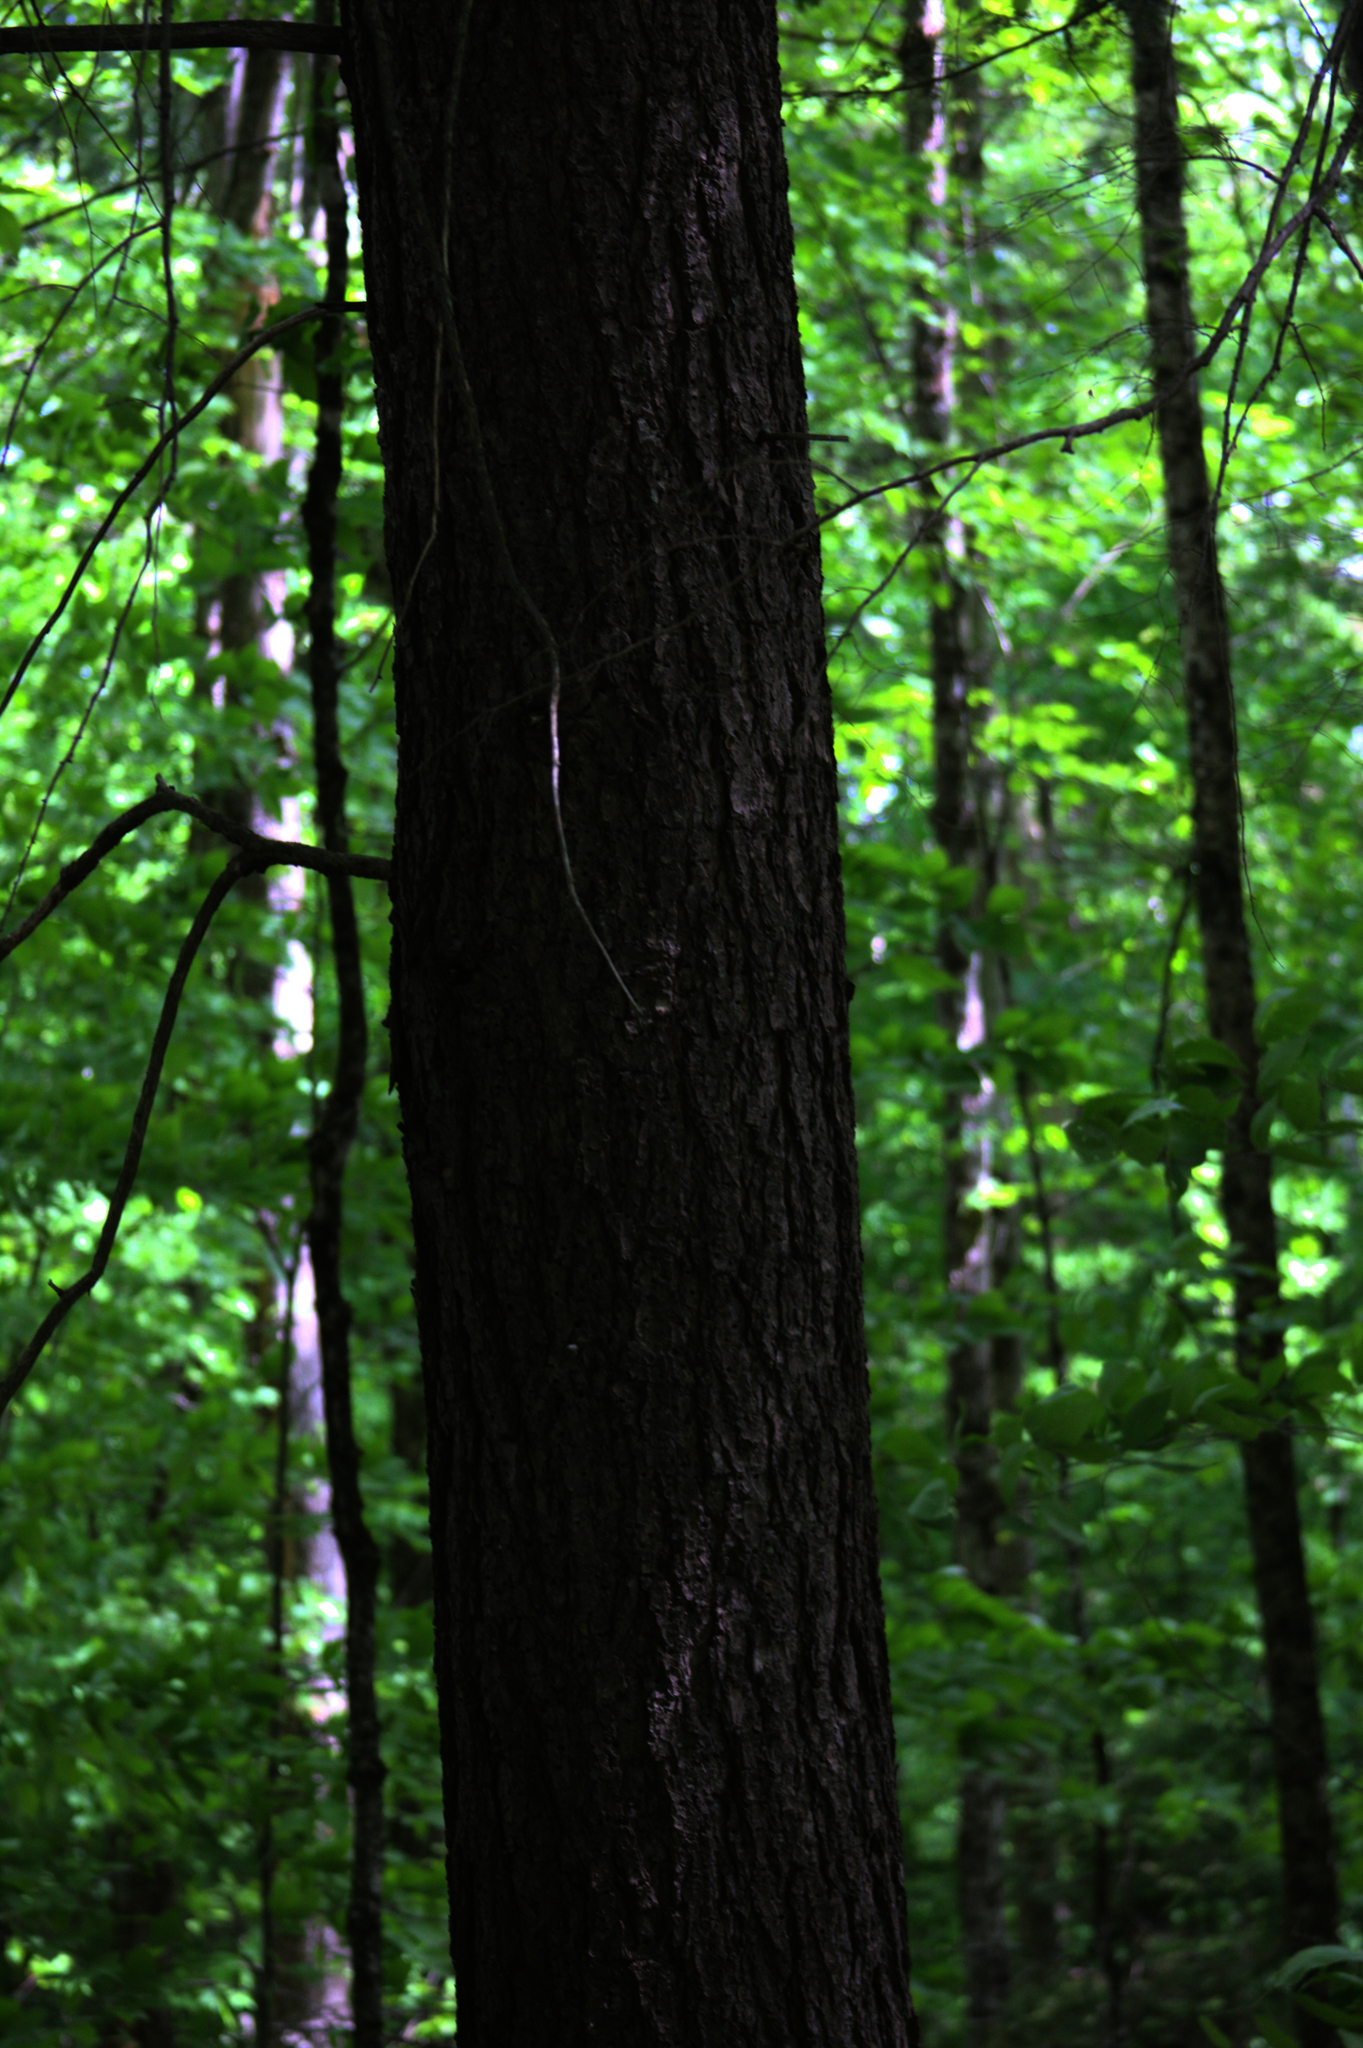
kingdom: Plantae
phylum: Tracheophyta
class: Pinopsida
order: Pinales
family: Pinaceae
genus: Tsuga
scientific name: Tsuga canadensis
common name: Eastern hemlock
